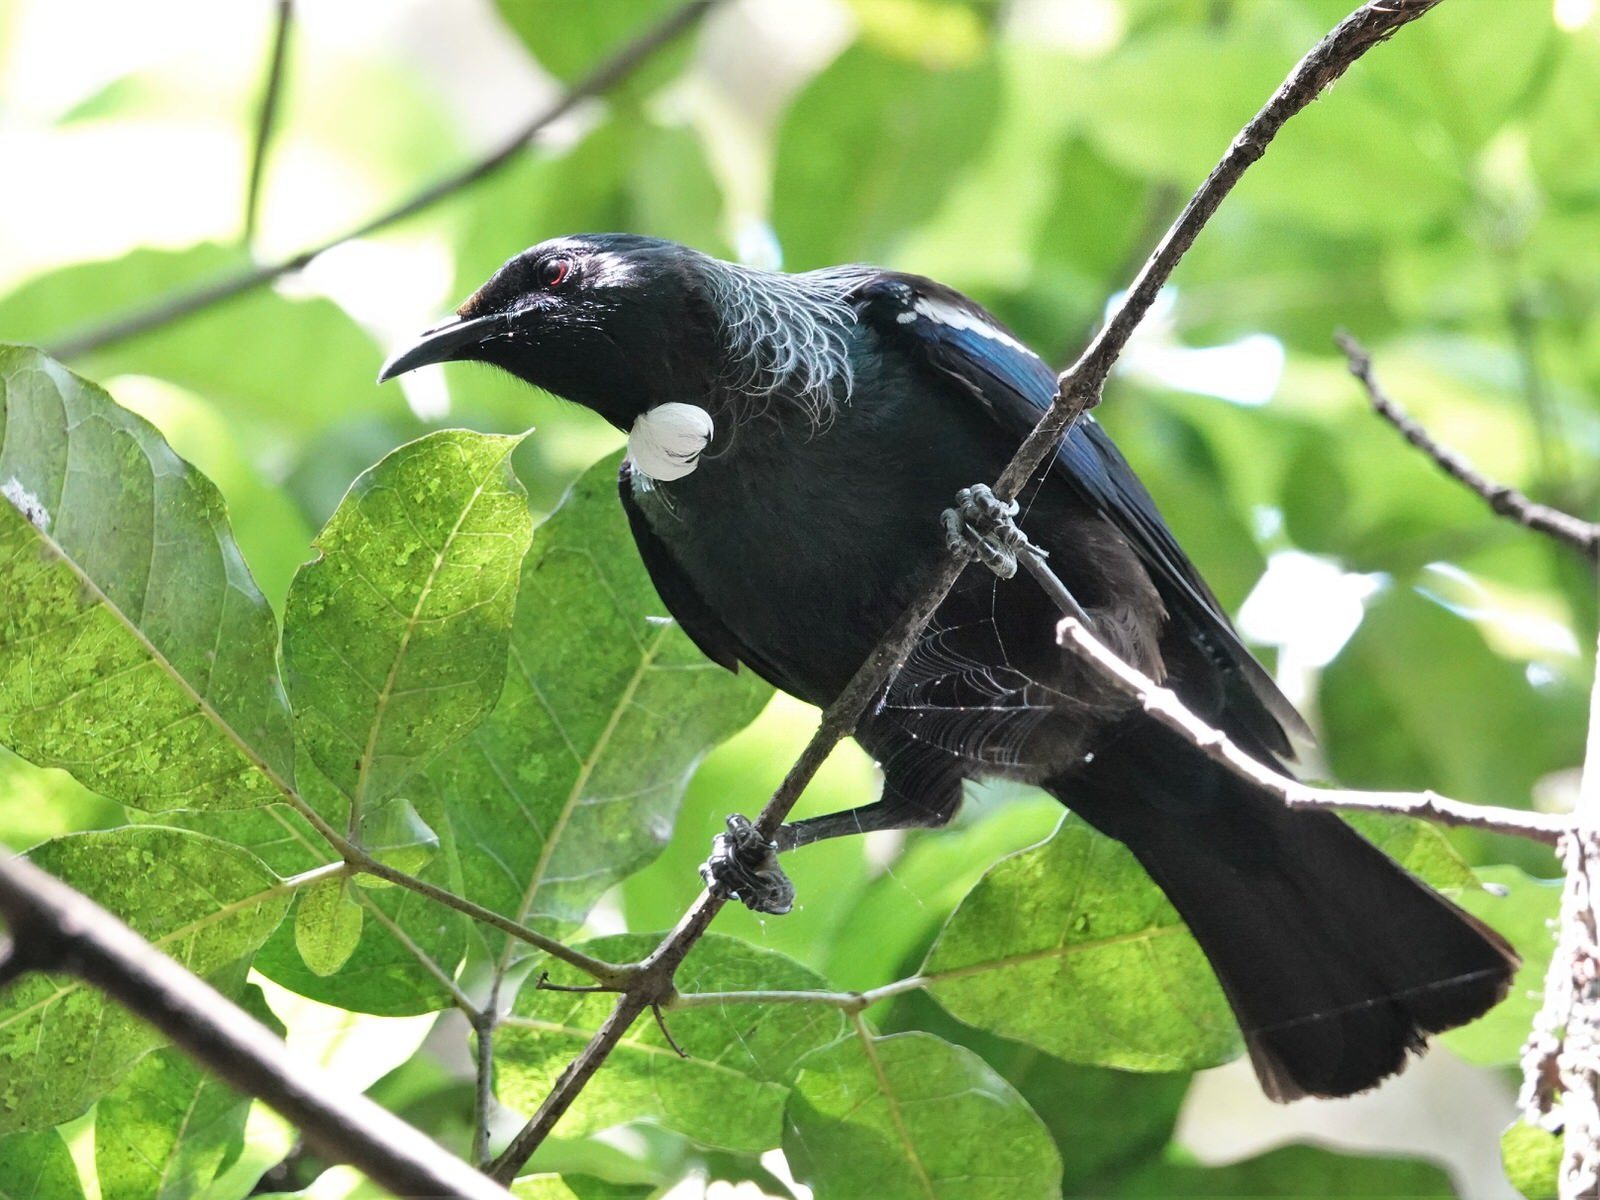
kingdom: Animalia
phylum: Chordata
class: Aves
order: Passeriformes
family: Meliphagidae
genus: Prosthemadera
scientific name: Prosthemadera novaeseelandiae
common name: Tui
